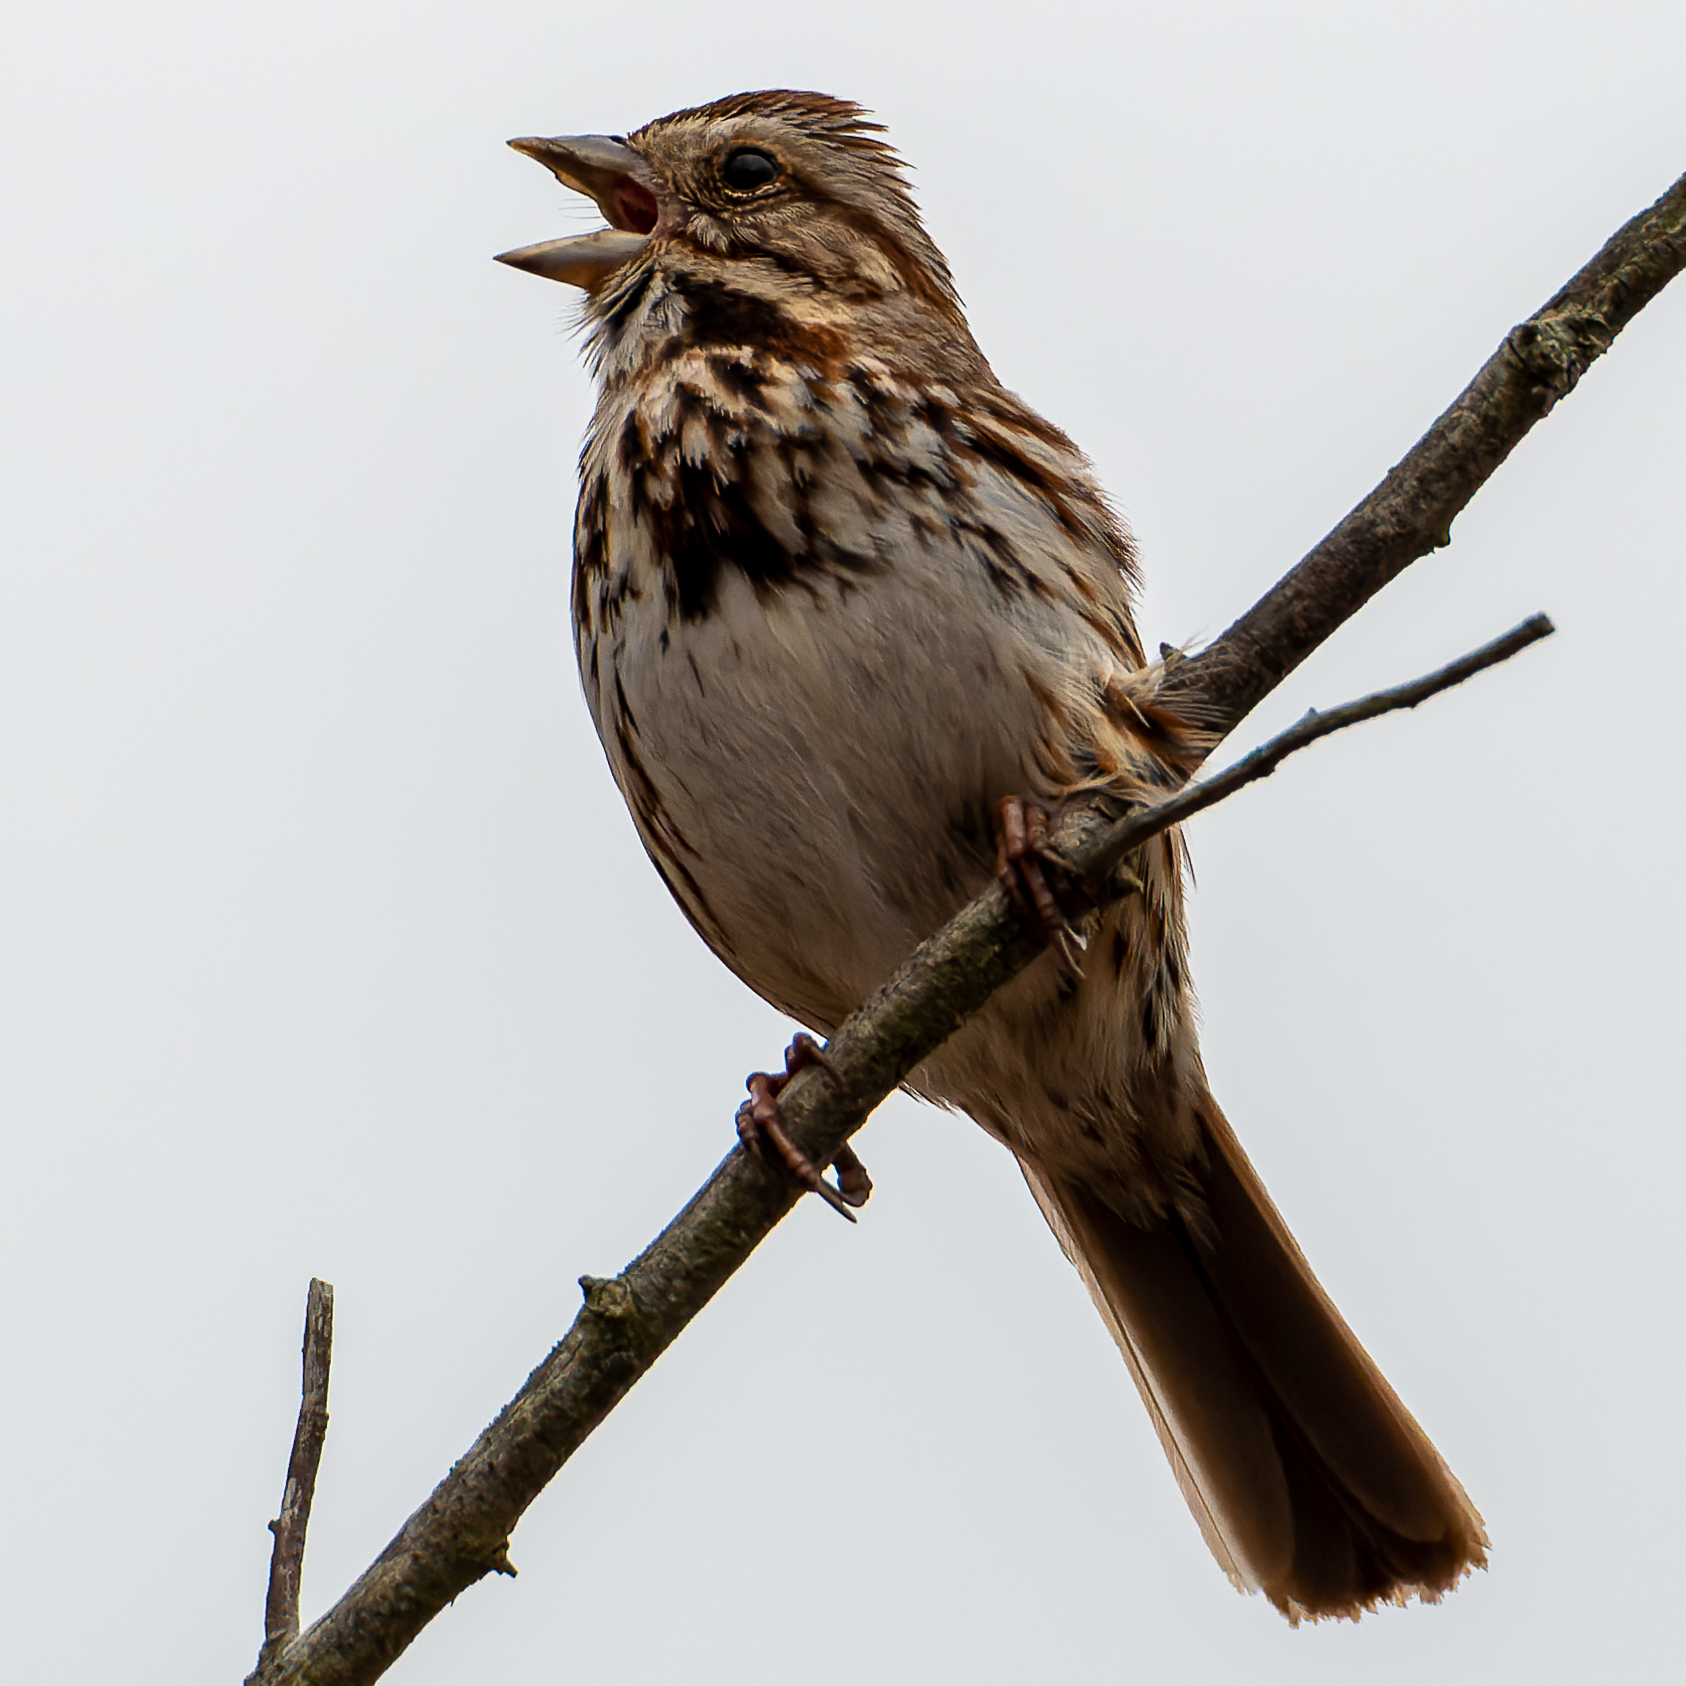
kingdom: Animalia
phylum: Chordata
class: Aves
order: Passeriformes
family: Passerellidae
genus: Melospiza
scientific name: Melospiza melodia
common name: Song sparrow
